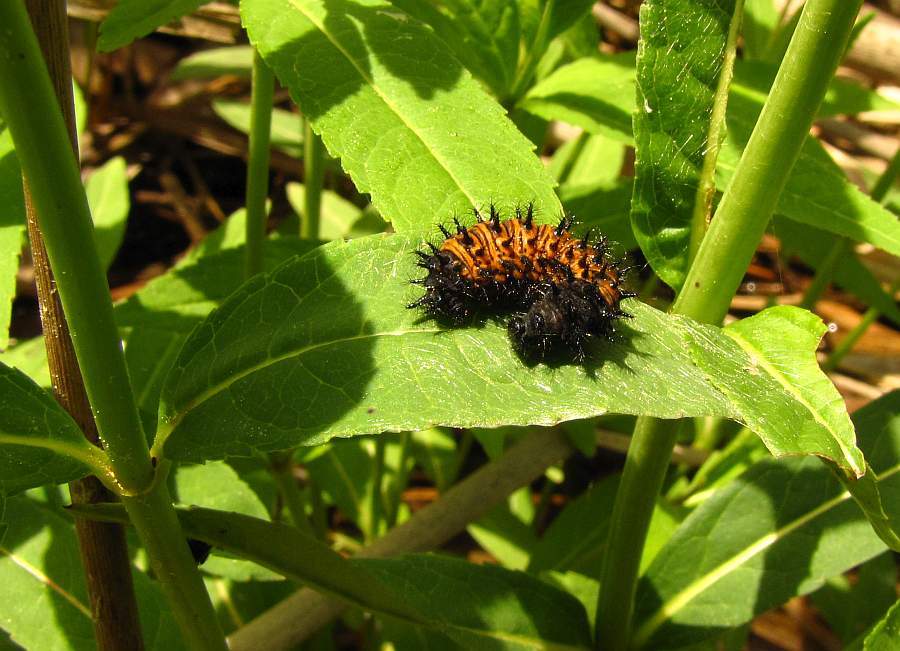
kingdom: Animalia
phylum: Arthropoda
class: Insecta
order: Lepidoptera
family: Nymphalidae
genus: Euphydryas
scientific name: Euphydryas phaeton
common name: Baltimore checkerspot
